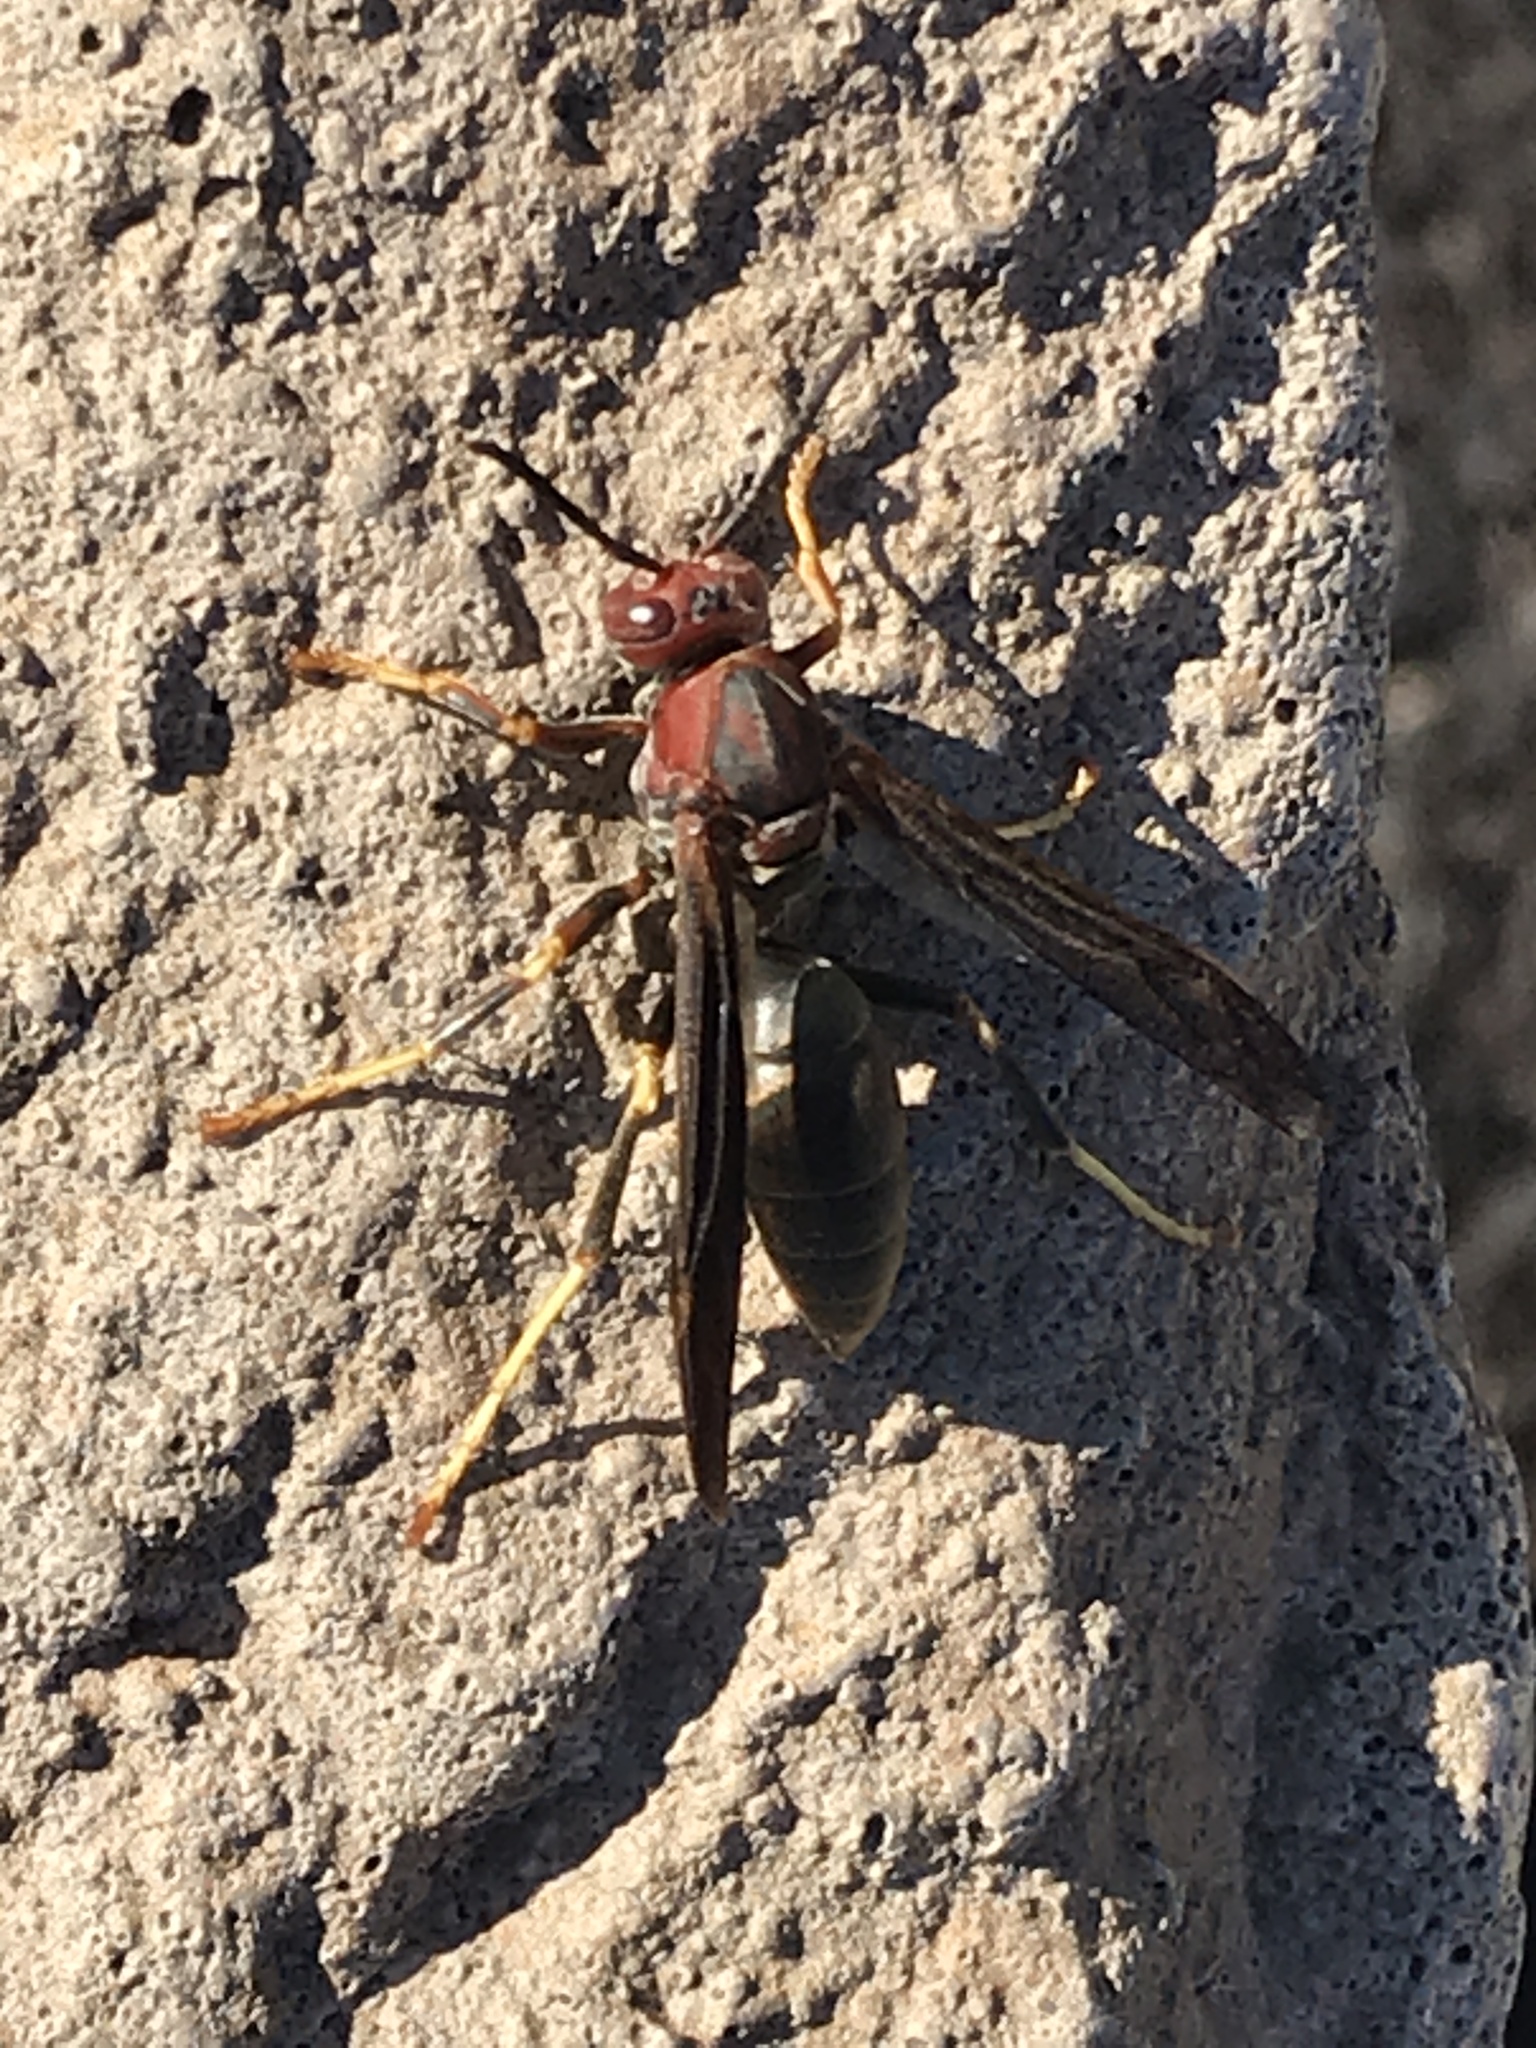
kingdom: Animalia
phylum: Arthropoda
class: Insecta
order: Hymenoptera
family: Eumenidae
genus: Polistes
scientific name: Polistes metricus
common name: Metric paper wasp
